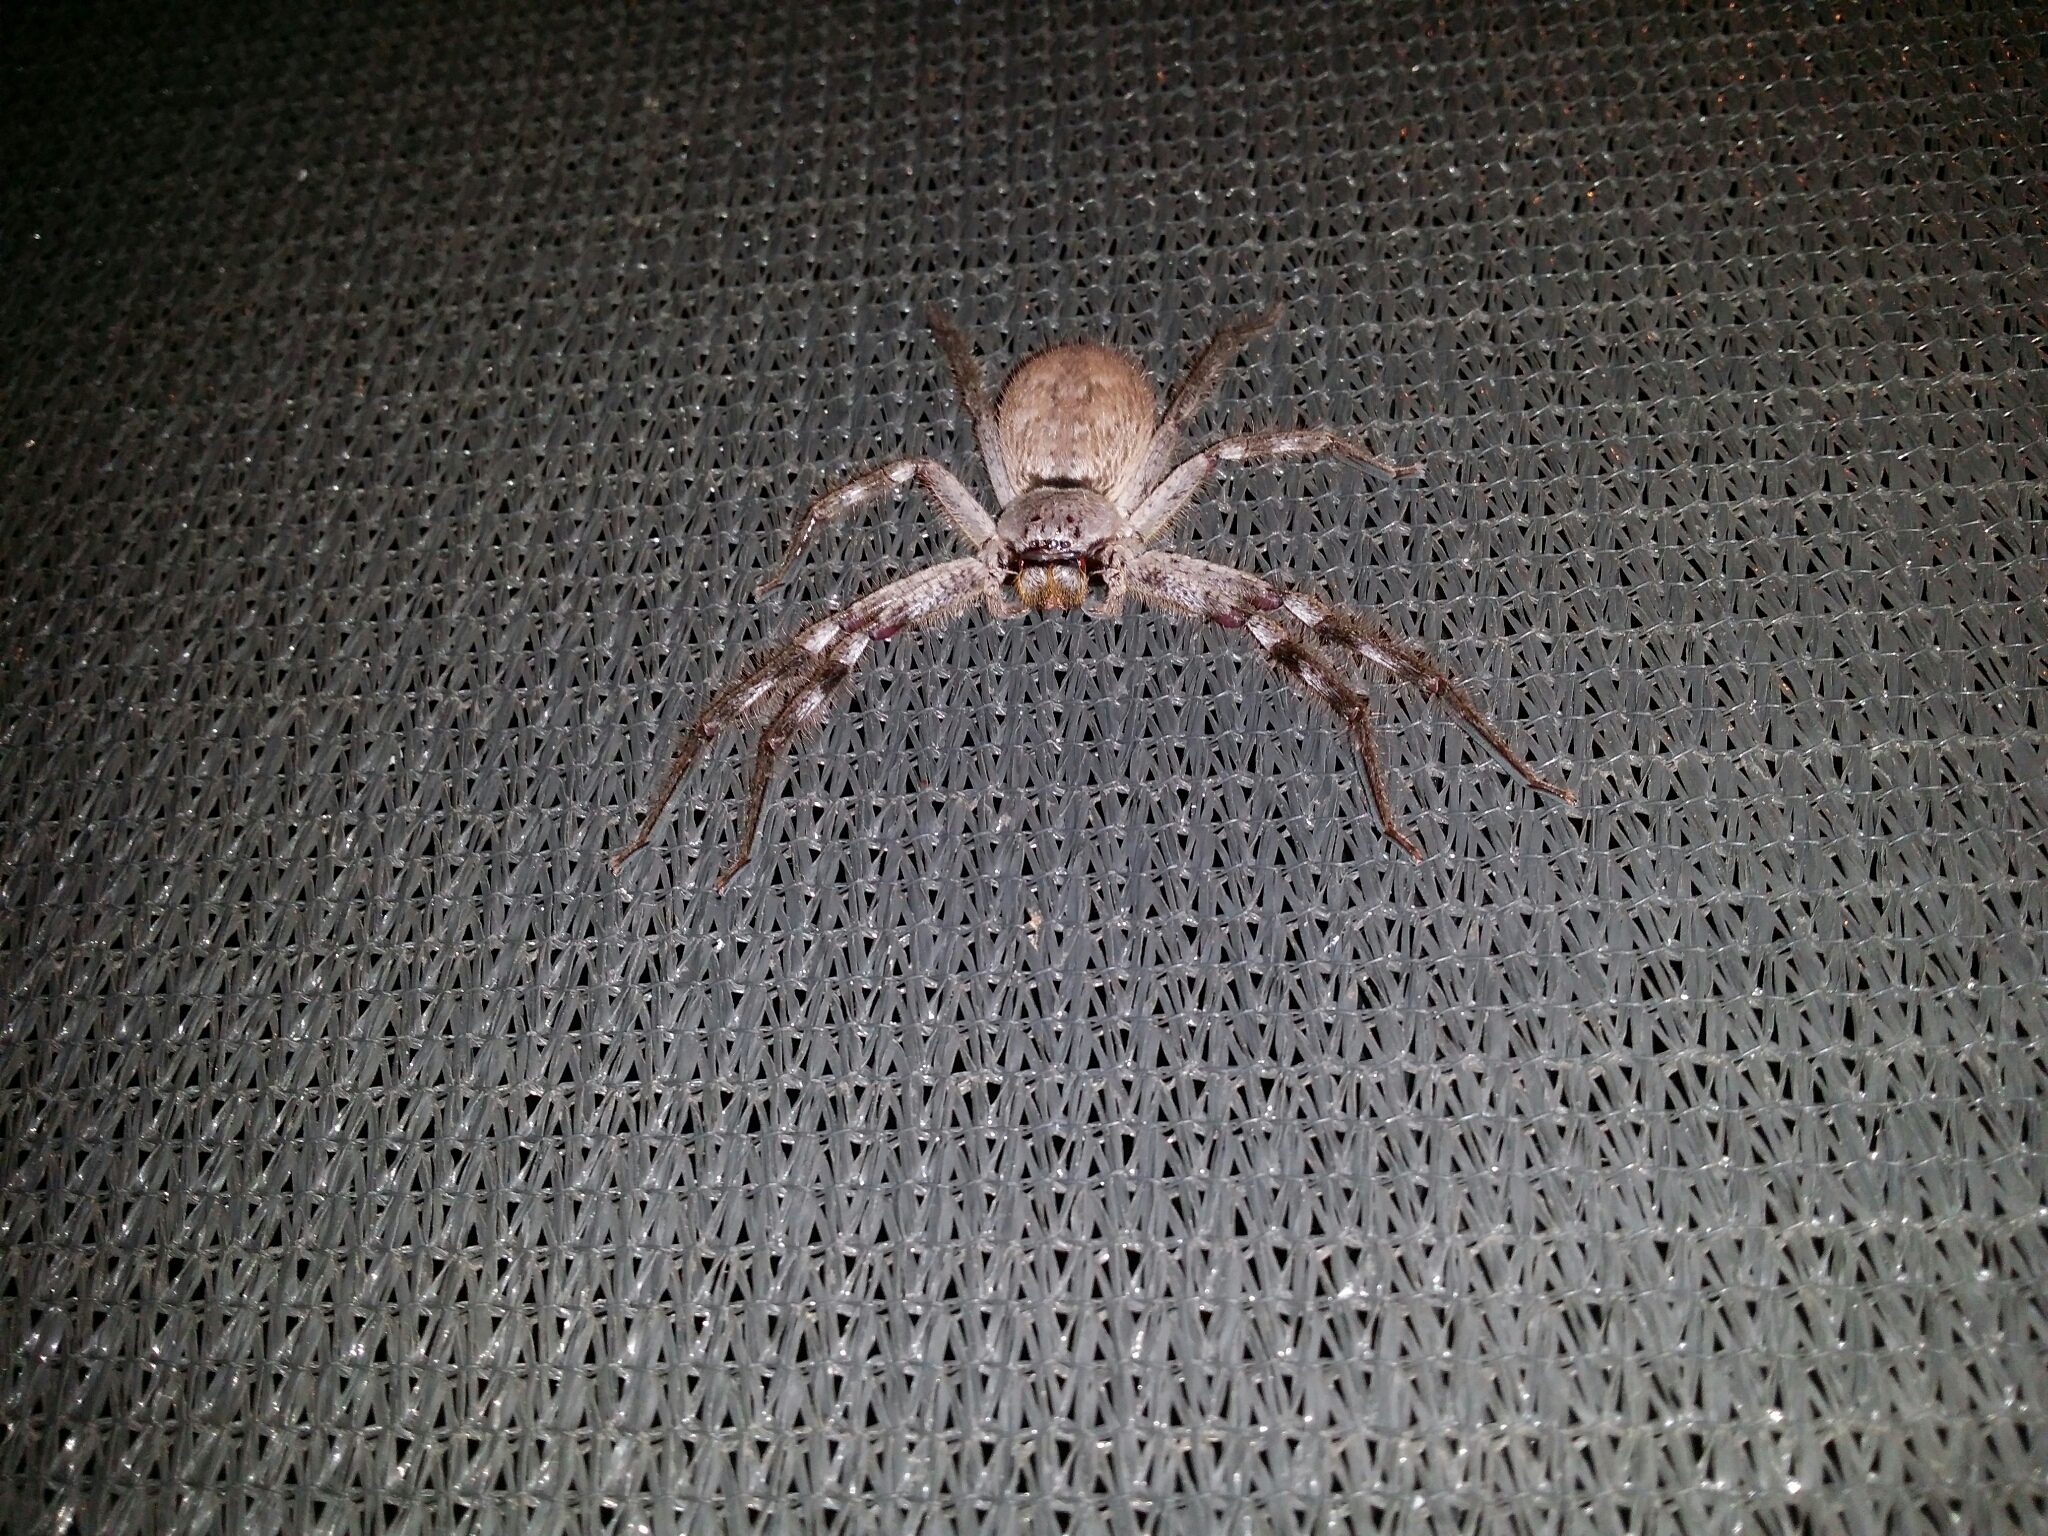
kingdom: Animalia
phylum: Arthropoda
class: Arachnida
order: Araneae
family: Sparassidae
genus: Isopeda
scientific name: Isopeda leishmanni
